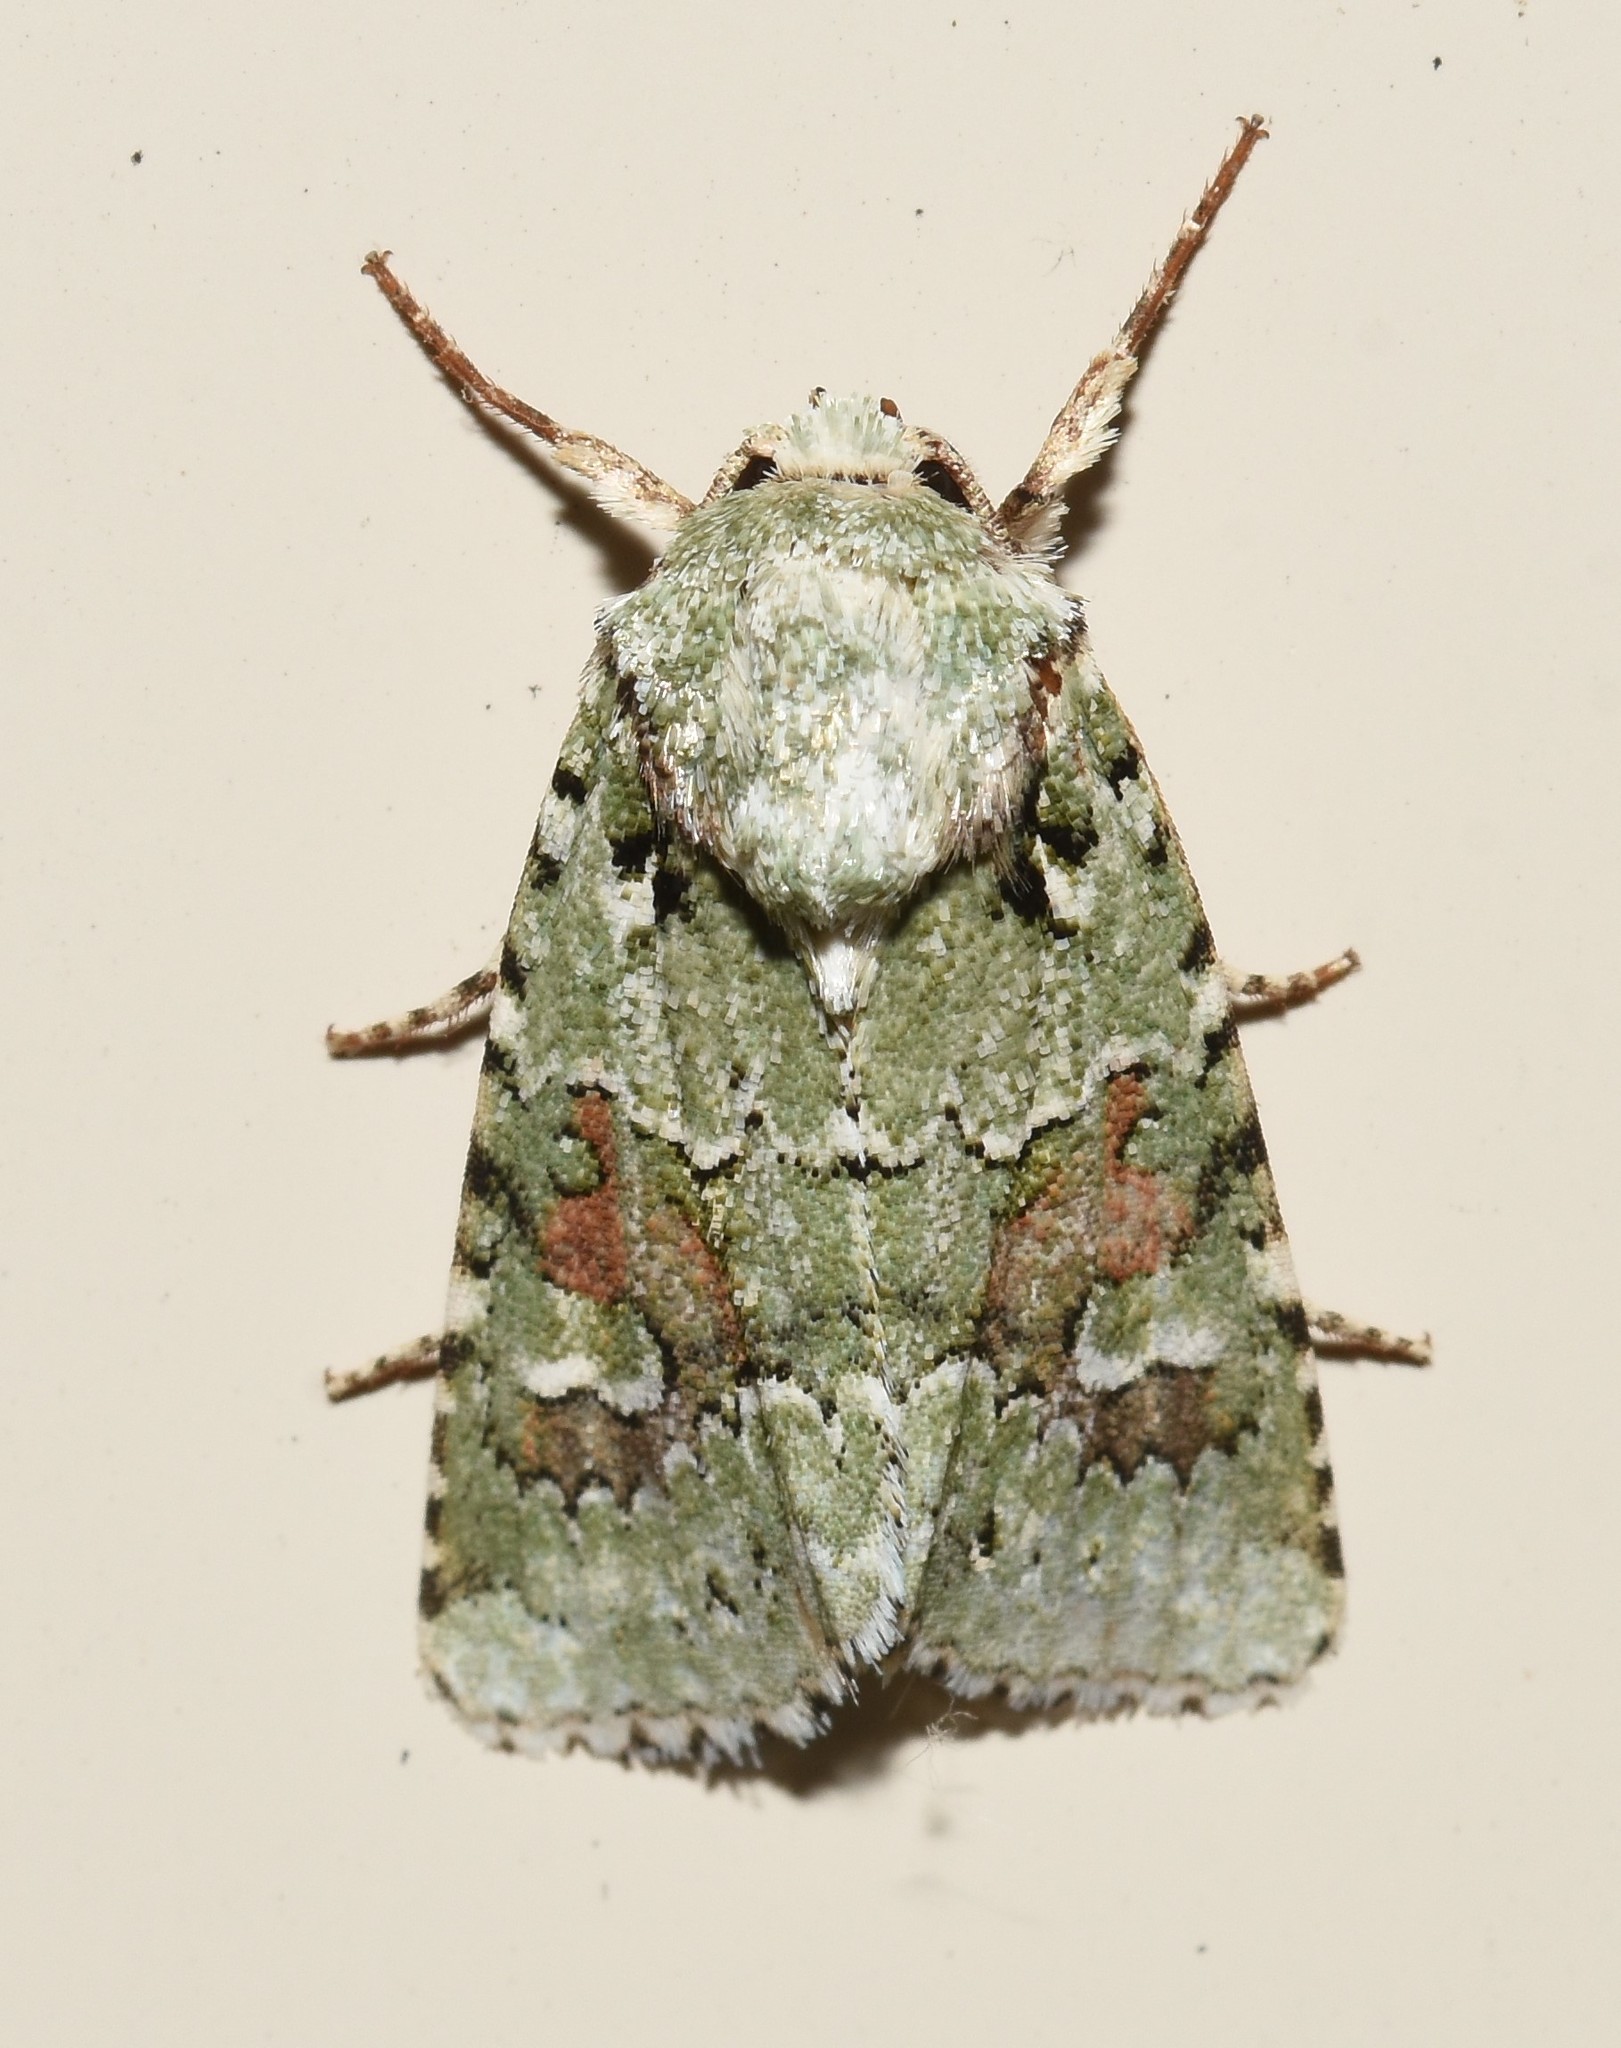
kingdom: Animalia
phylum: Arthropoda
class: Insecta
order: Lepidoptera
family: Noctuidae
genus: Lacinipolia
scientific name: Lacinipolia laudabilis
